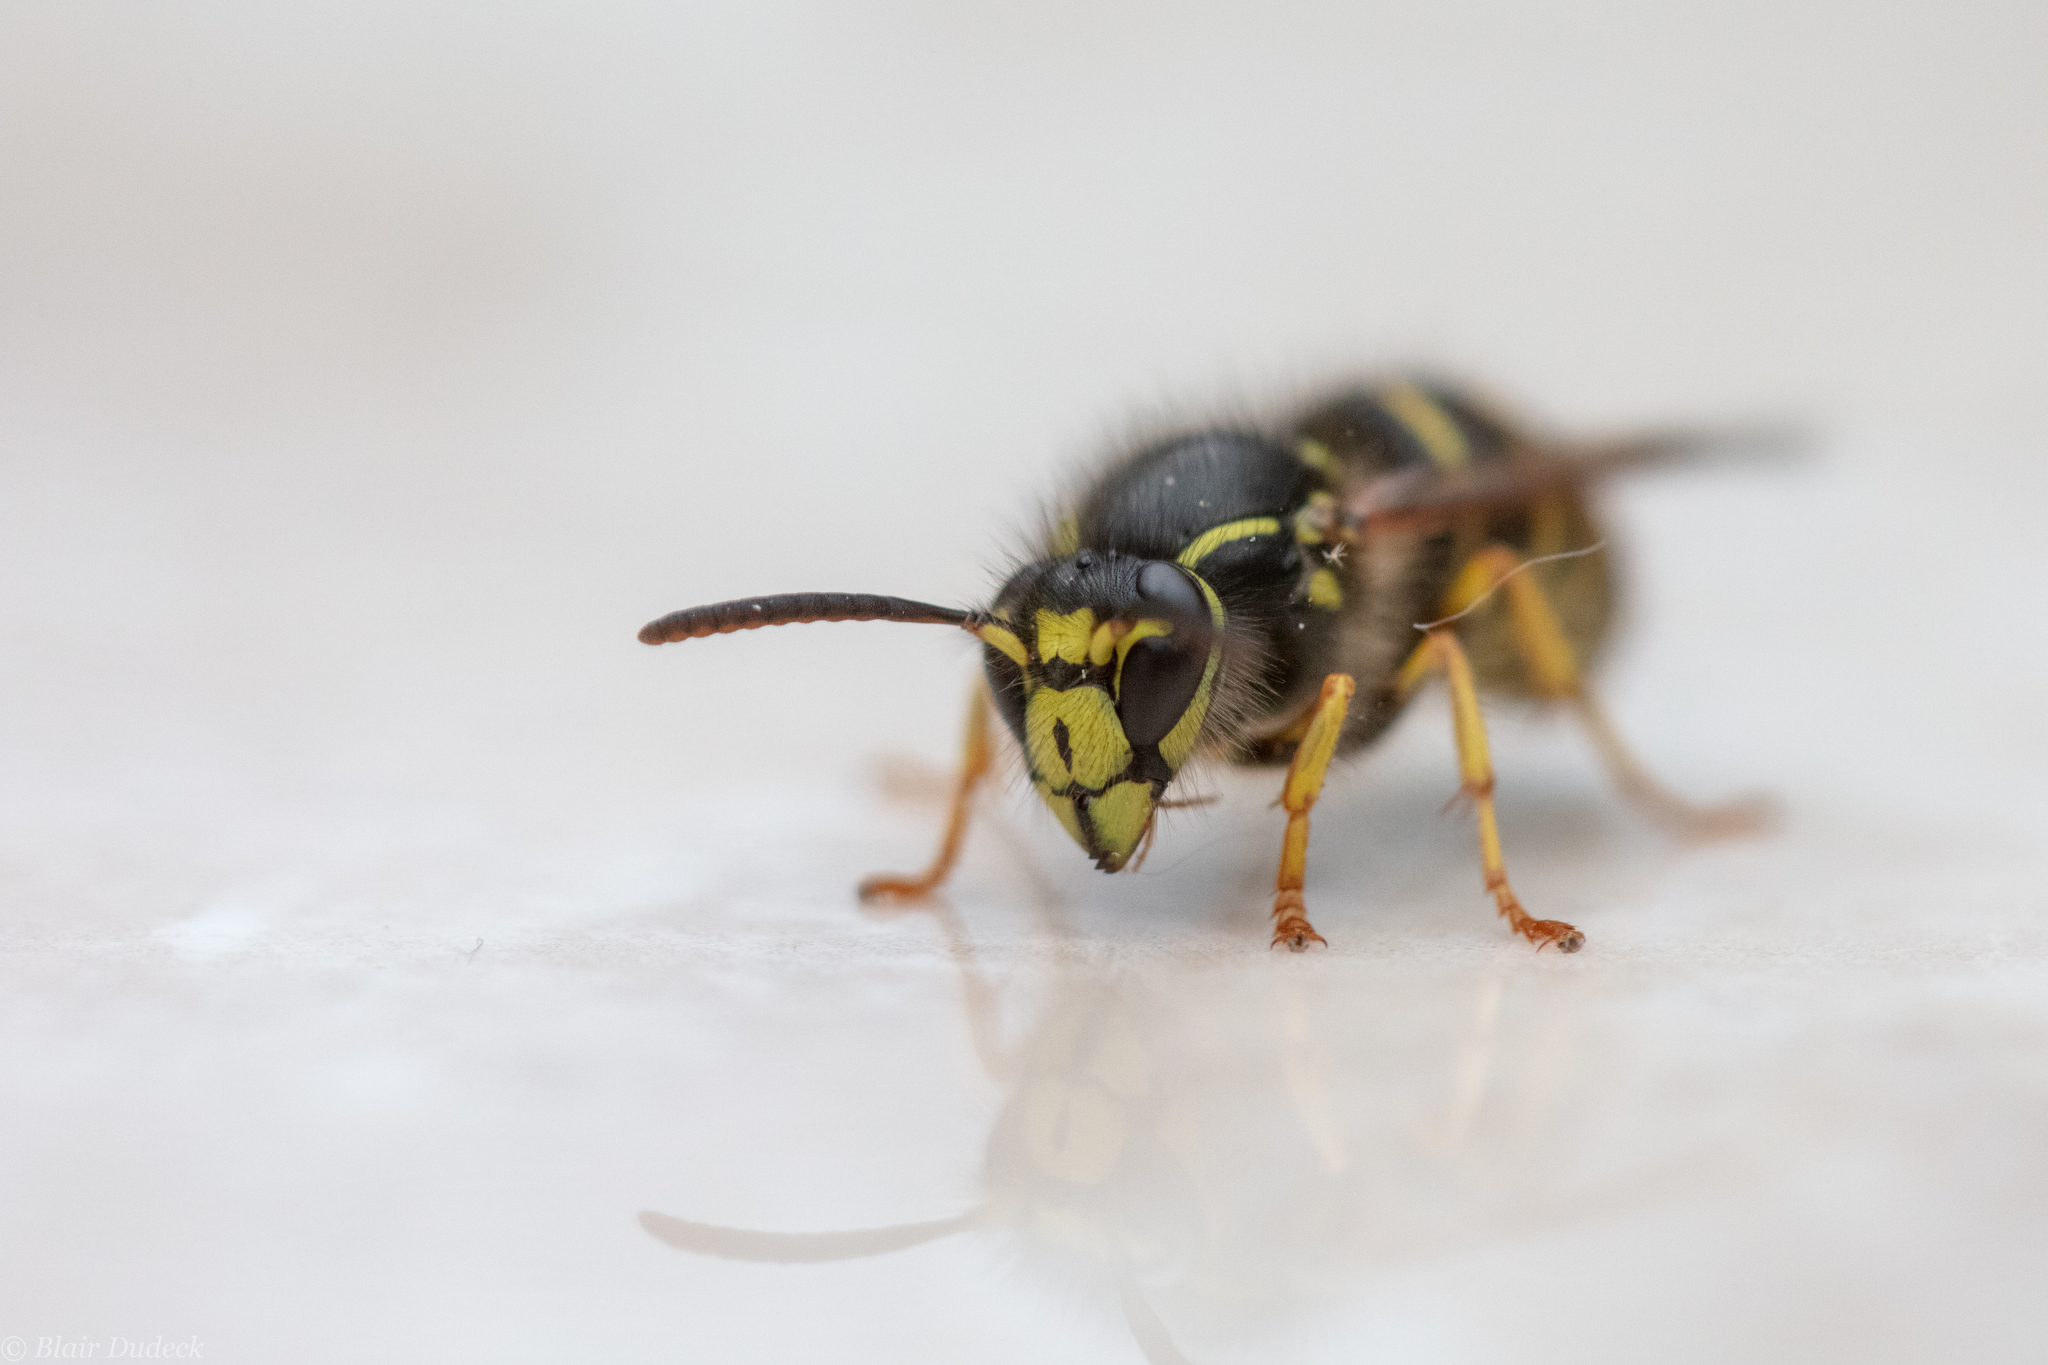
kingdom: Animalia
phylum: Arthropoda
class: Insecta
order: Hymenoptera
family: Vespidae
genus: Dolichovespula
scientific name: Dolichovespula arenaria
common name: Aerial yellowjacket
